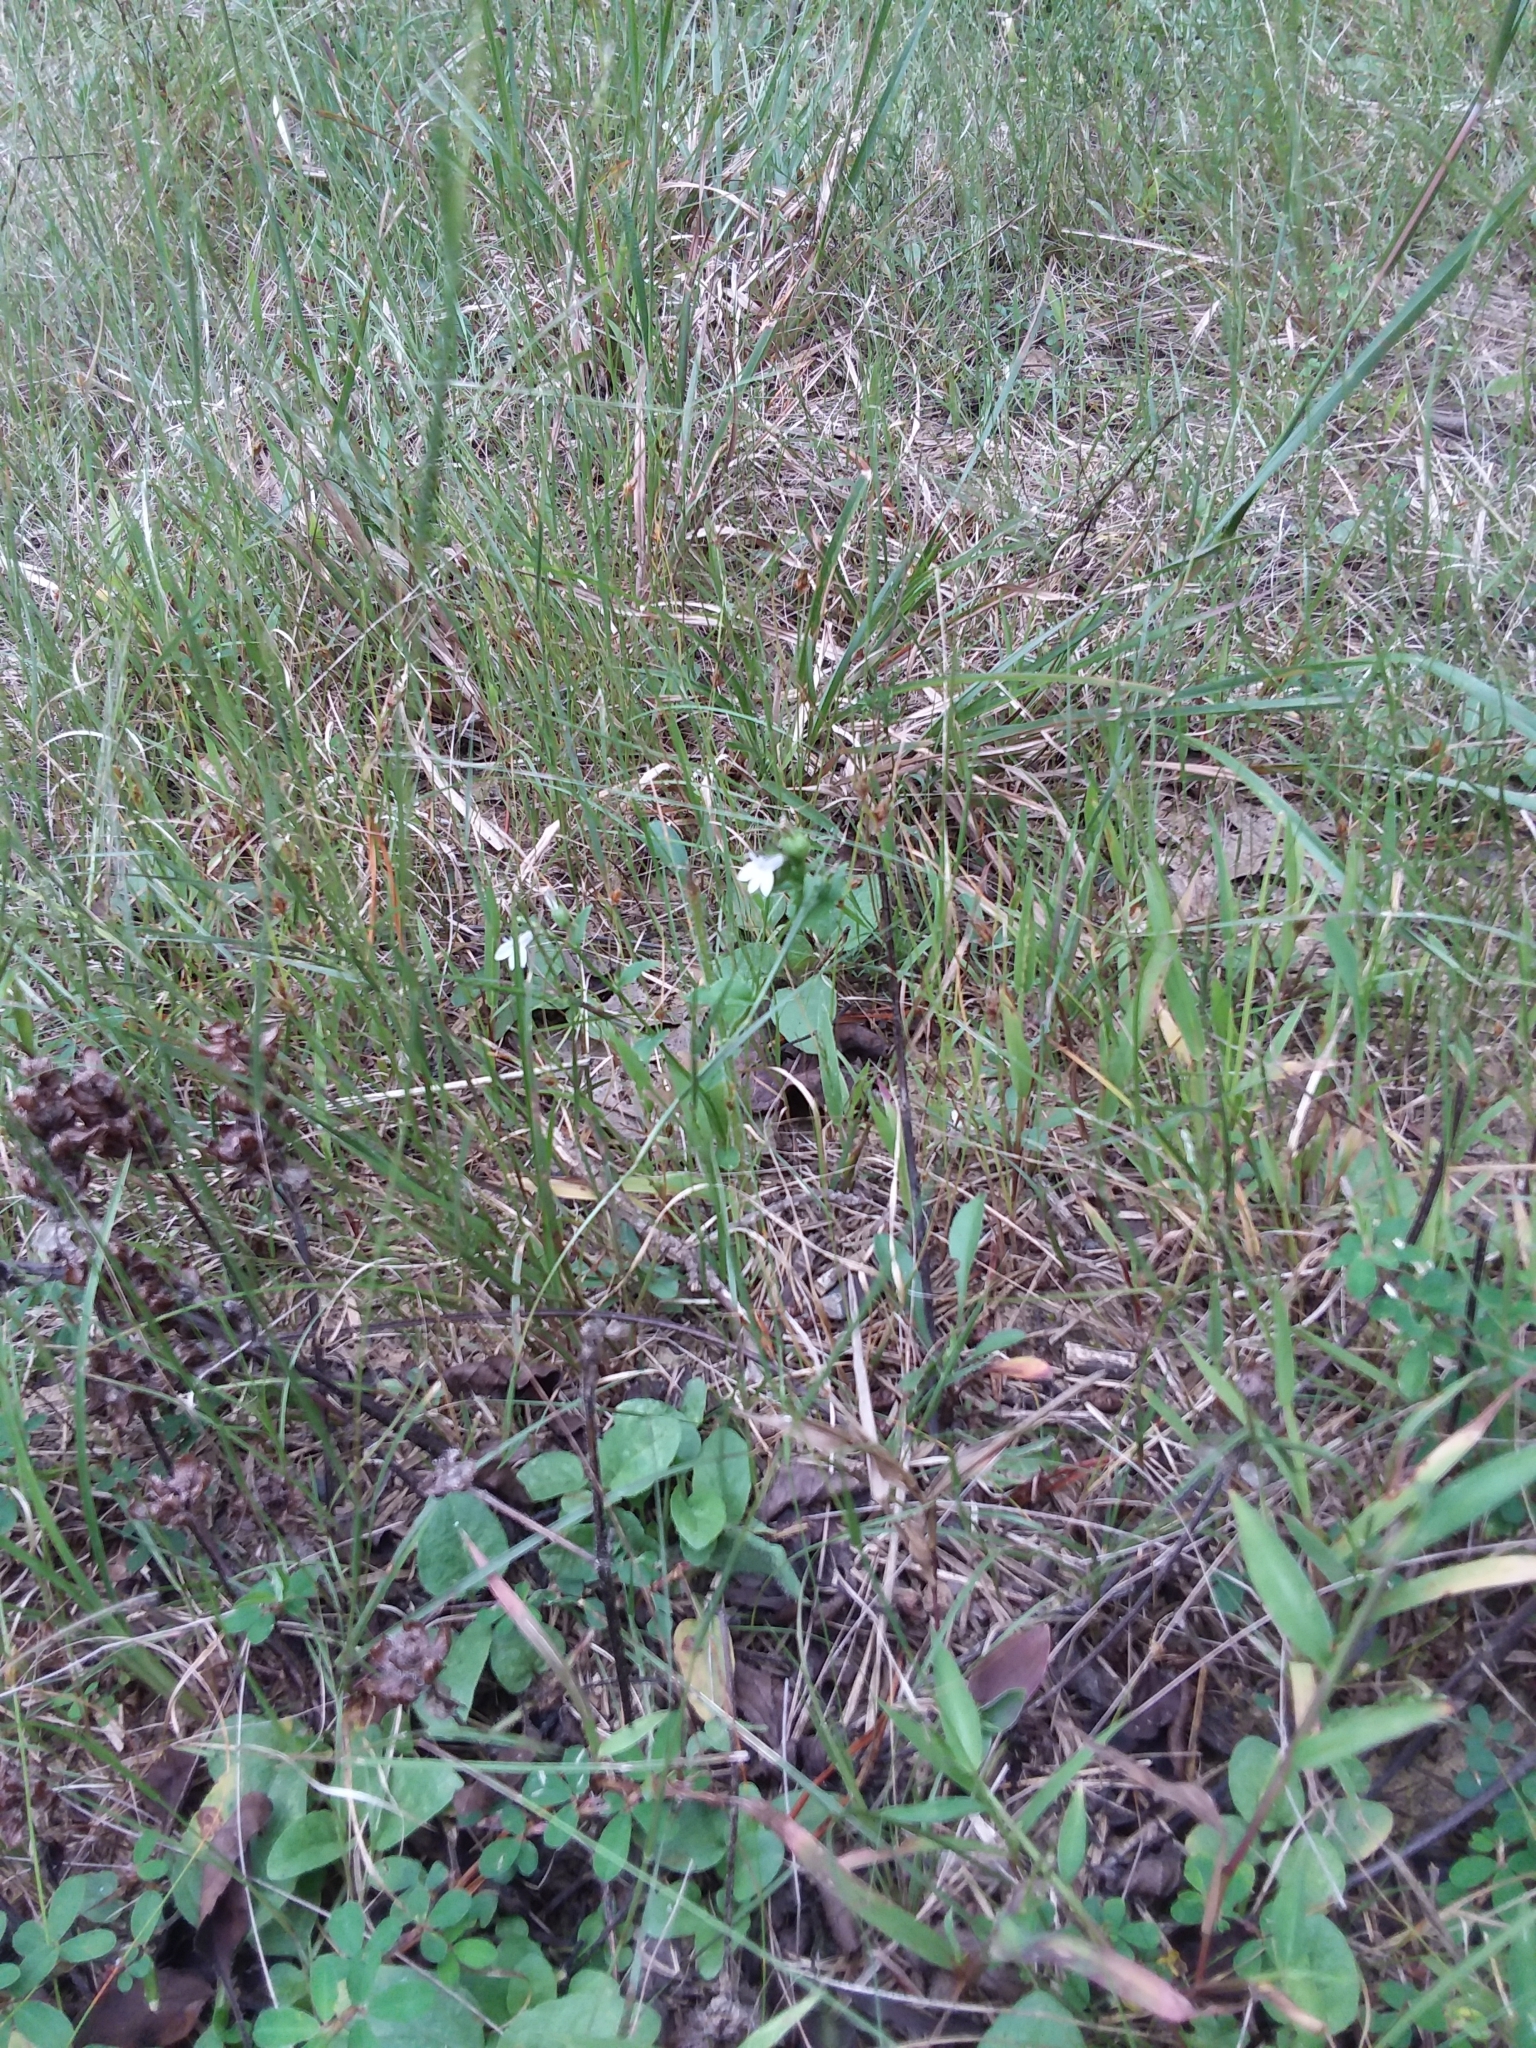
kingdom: Plantae
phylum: Tracheophyta
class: Magnoliopsida
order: Asterales
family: Campanulaceae
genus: Lobelia
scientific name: Lobelia inflata
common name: Indian tobacco
